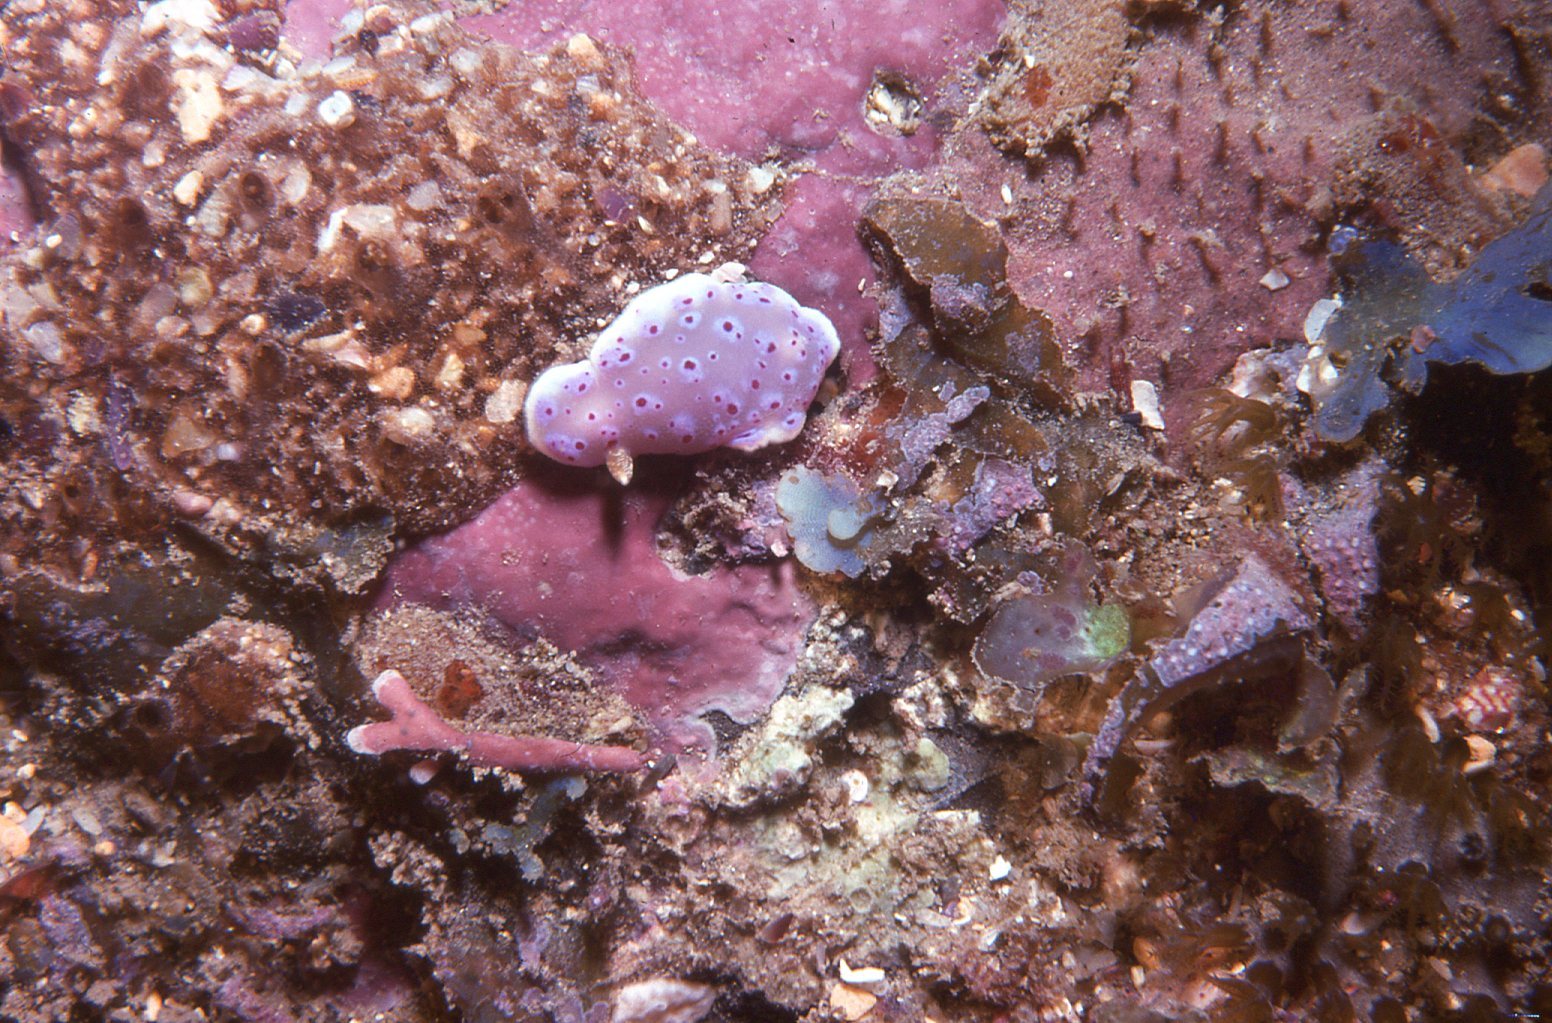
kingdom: Animalia
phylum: Mollusca
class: Gastropoda
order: Nudibranchia
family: Chromodorididae
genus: Goniobranchus
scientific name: Goniobranchus thompsoni
